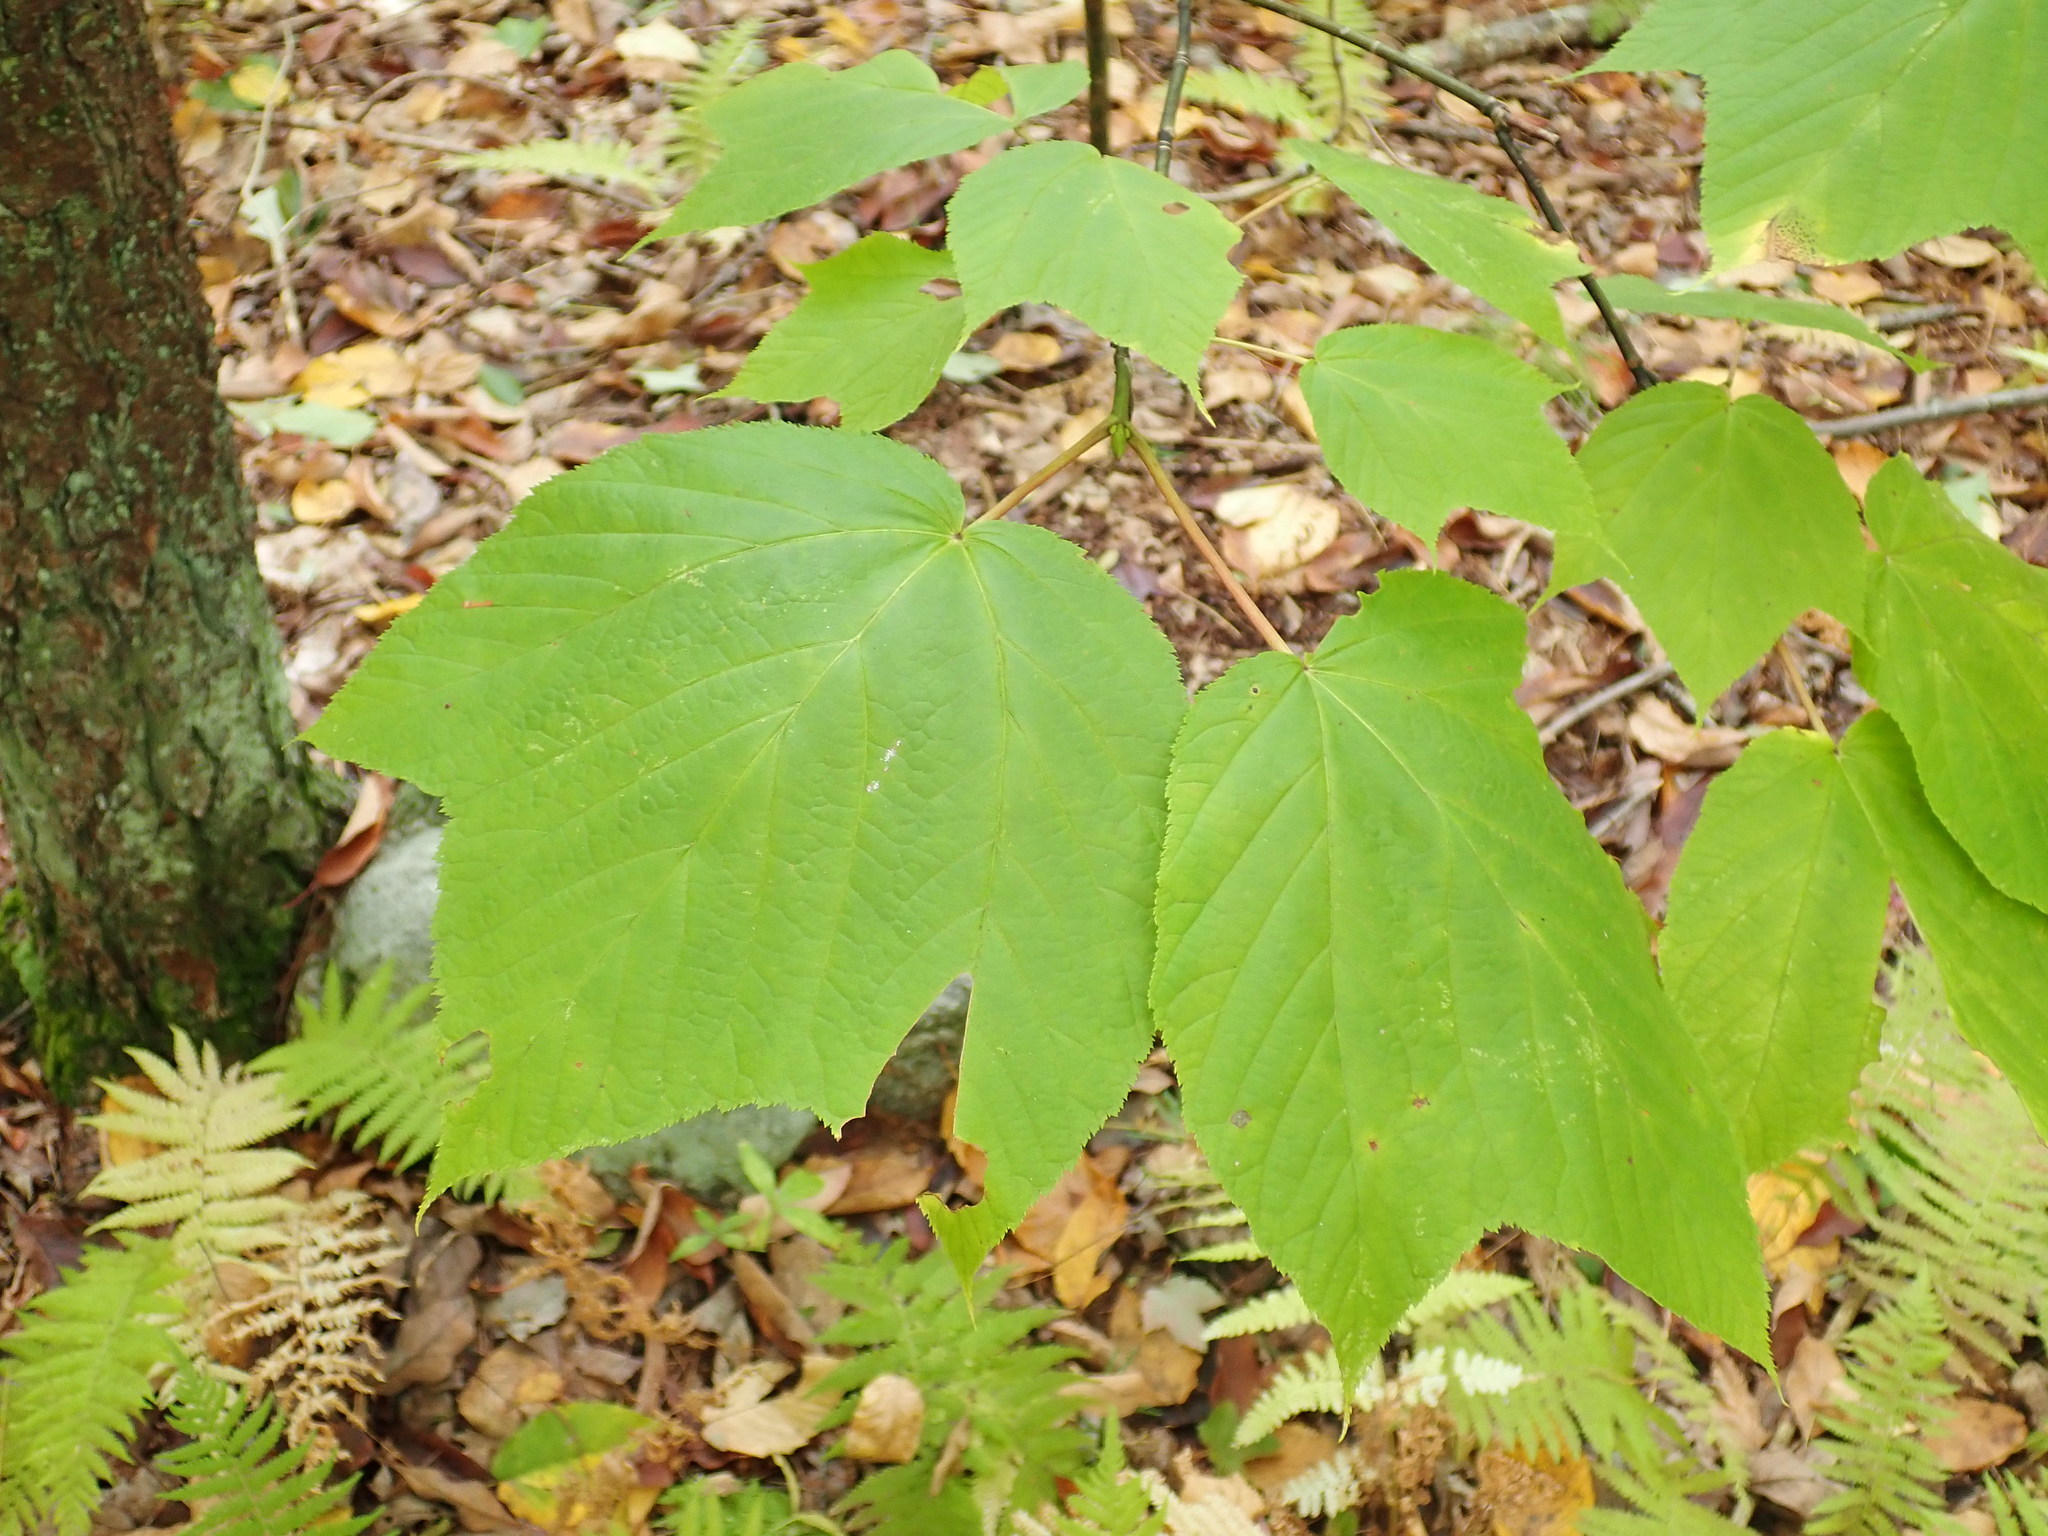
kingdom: Plantae
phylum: Tracheophyta
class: Magnoliopsida
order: Sapindales
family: Sapindaceae
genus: Acer
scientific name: Acer pensylvanicum
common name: Moosewood
